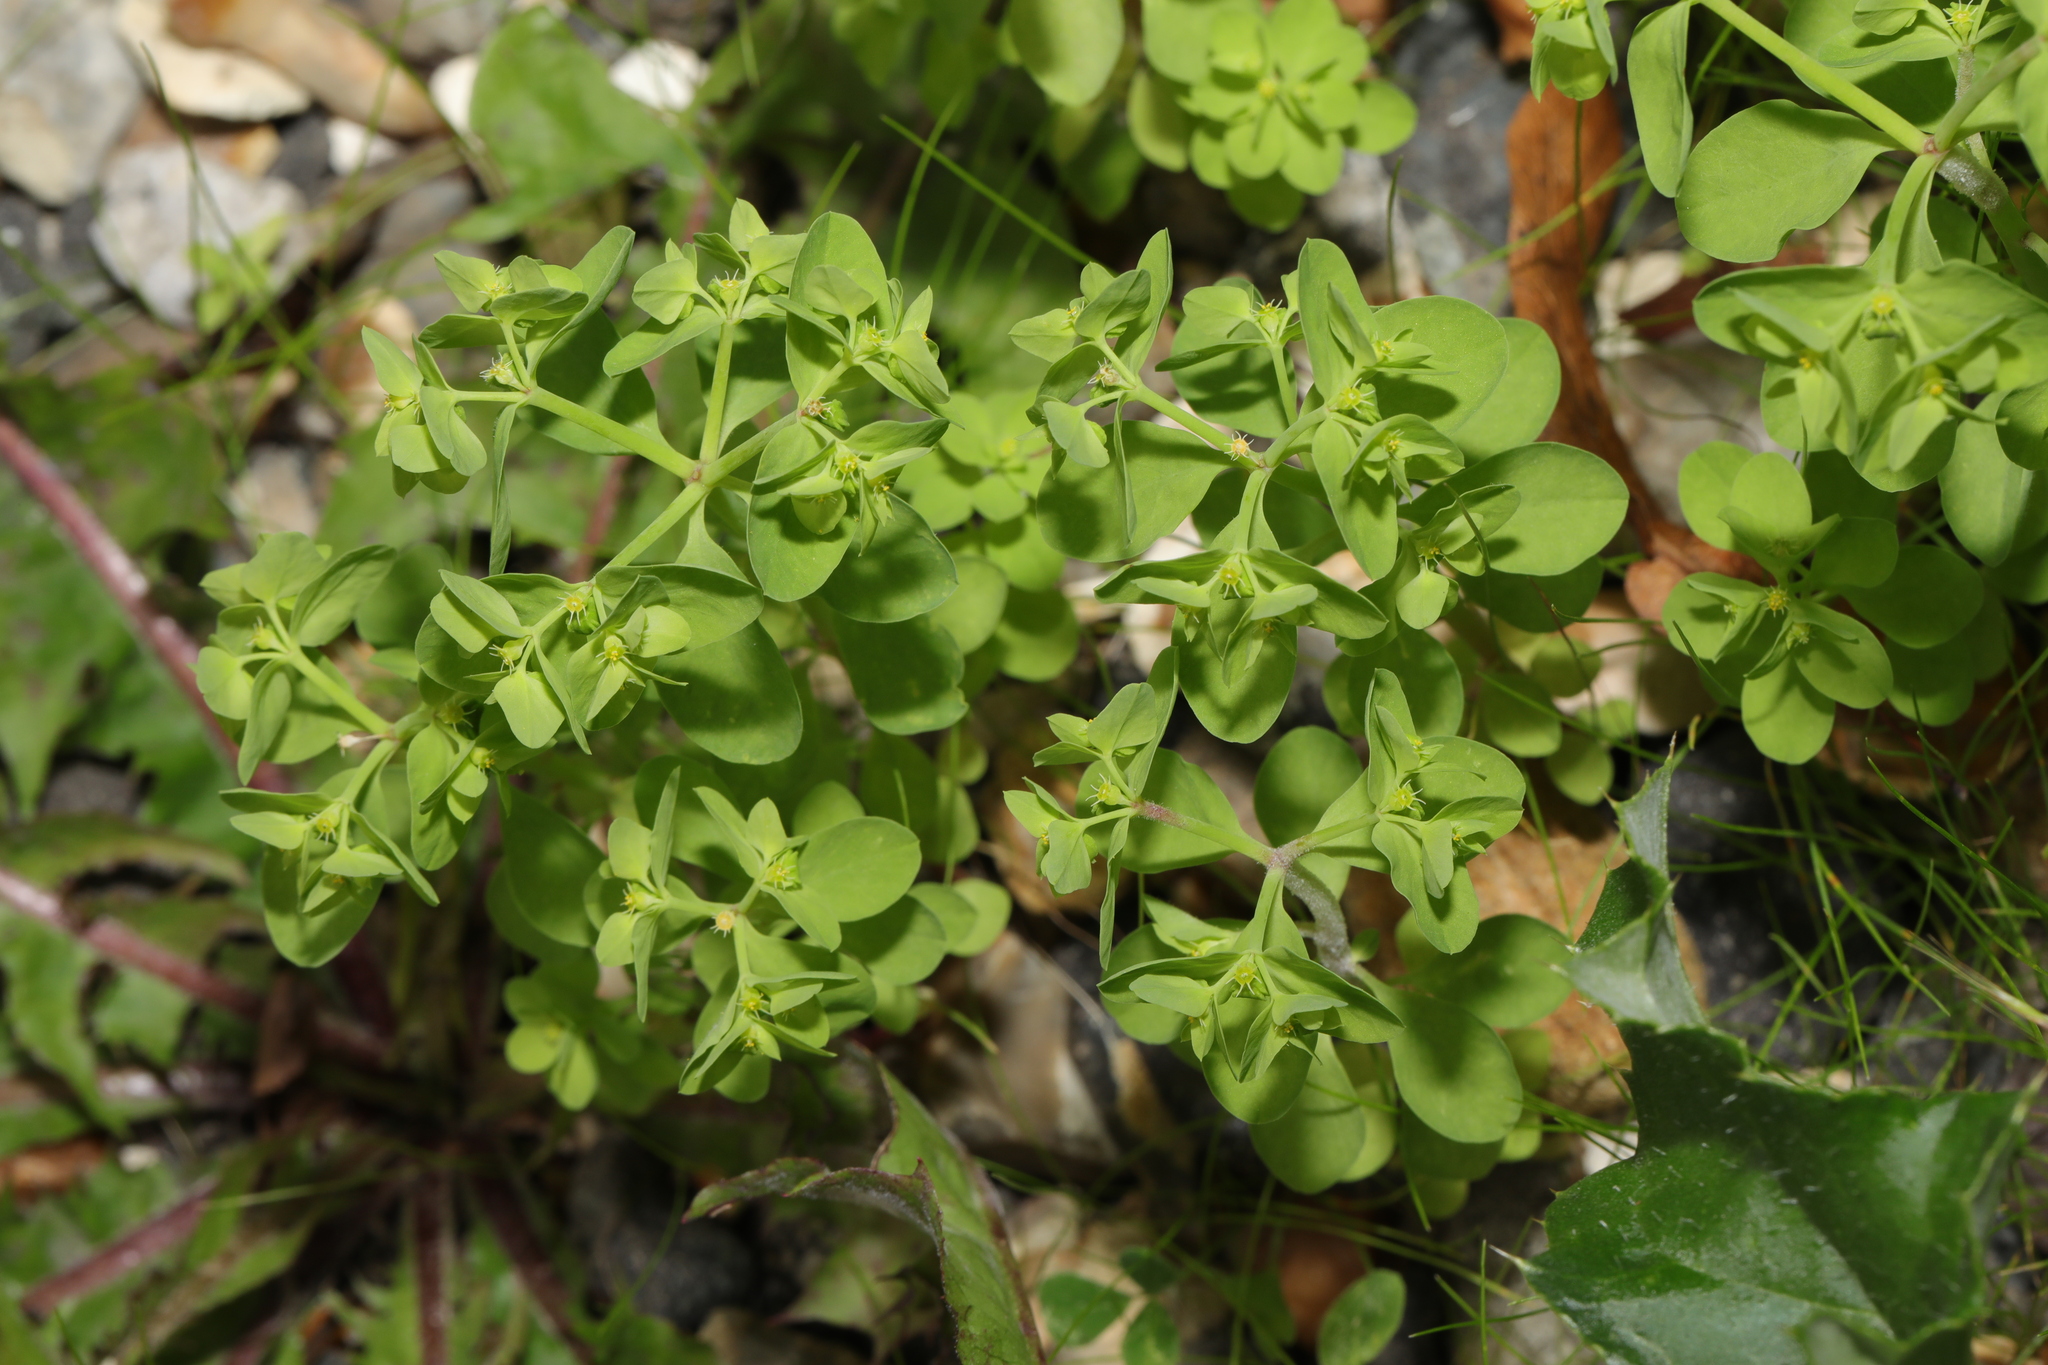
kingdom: Plantae
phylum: Tracheophyta
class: Magnoliopsida
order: Malpighiales
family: Euphorbiaceae
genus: Euphorbia
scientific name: Euphorbia peplus
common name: Petty spurge
